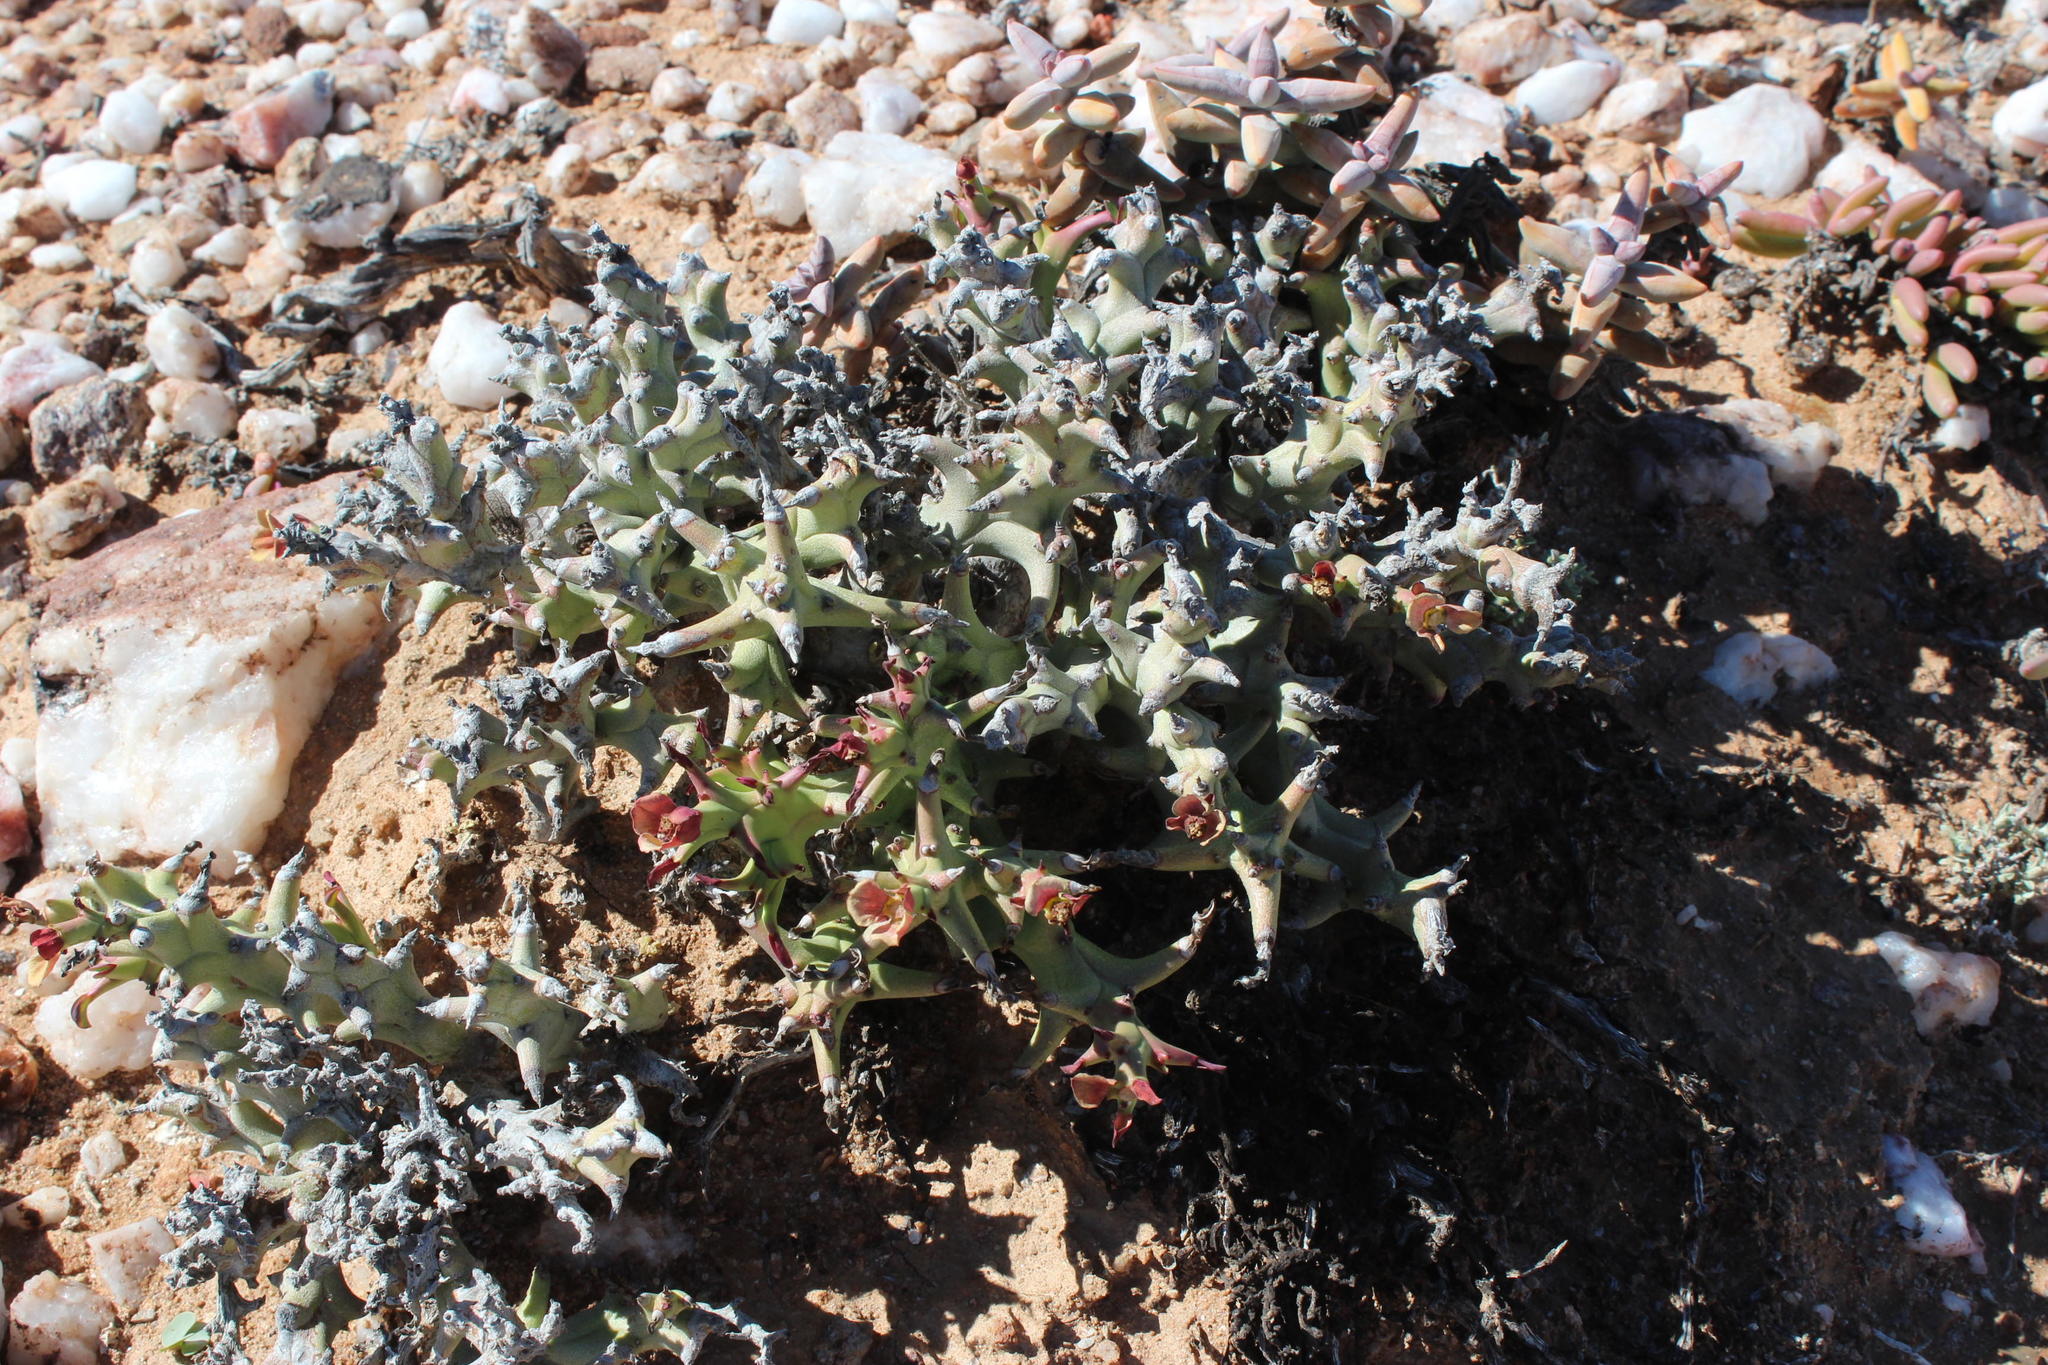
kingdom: Plantae
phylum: Tracheophyta
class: Magnoliopsida
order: Malpighiales
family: Euphorbiaceae
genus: Euphorbia
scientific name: Euphorbia hamata
